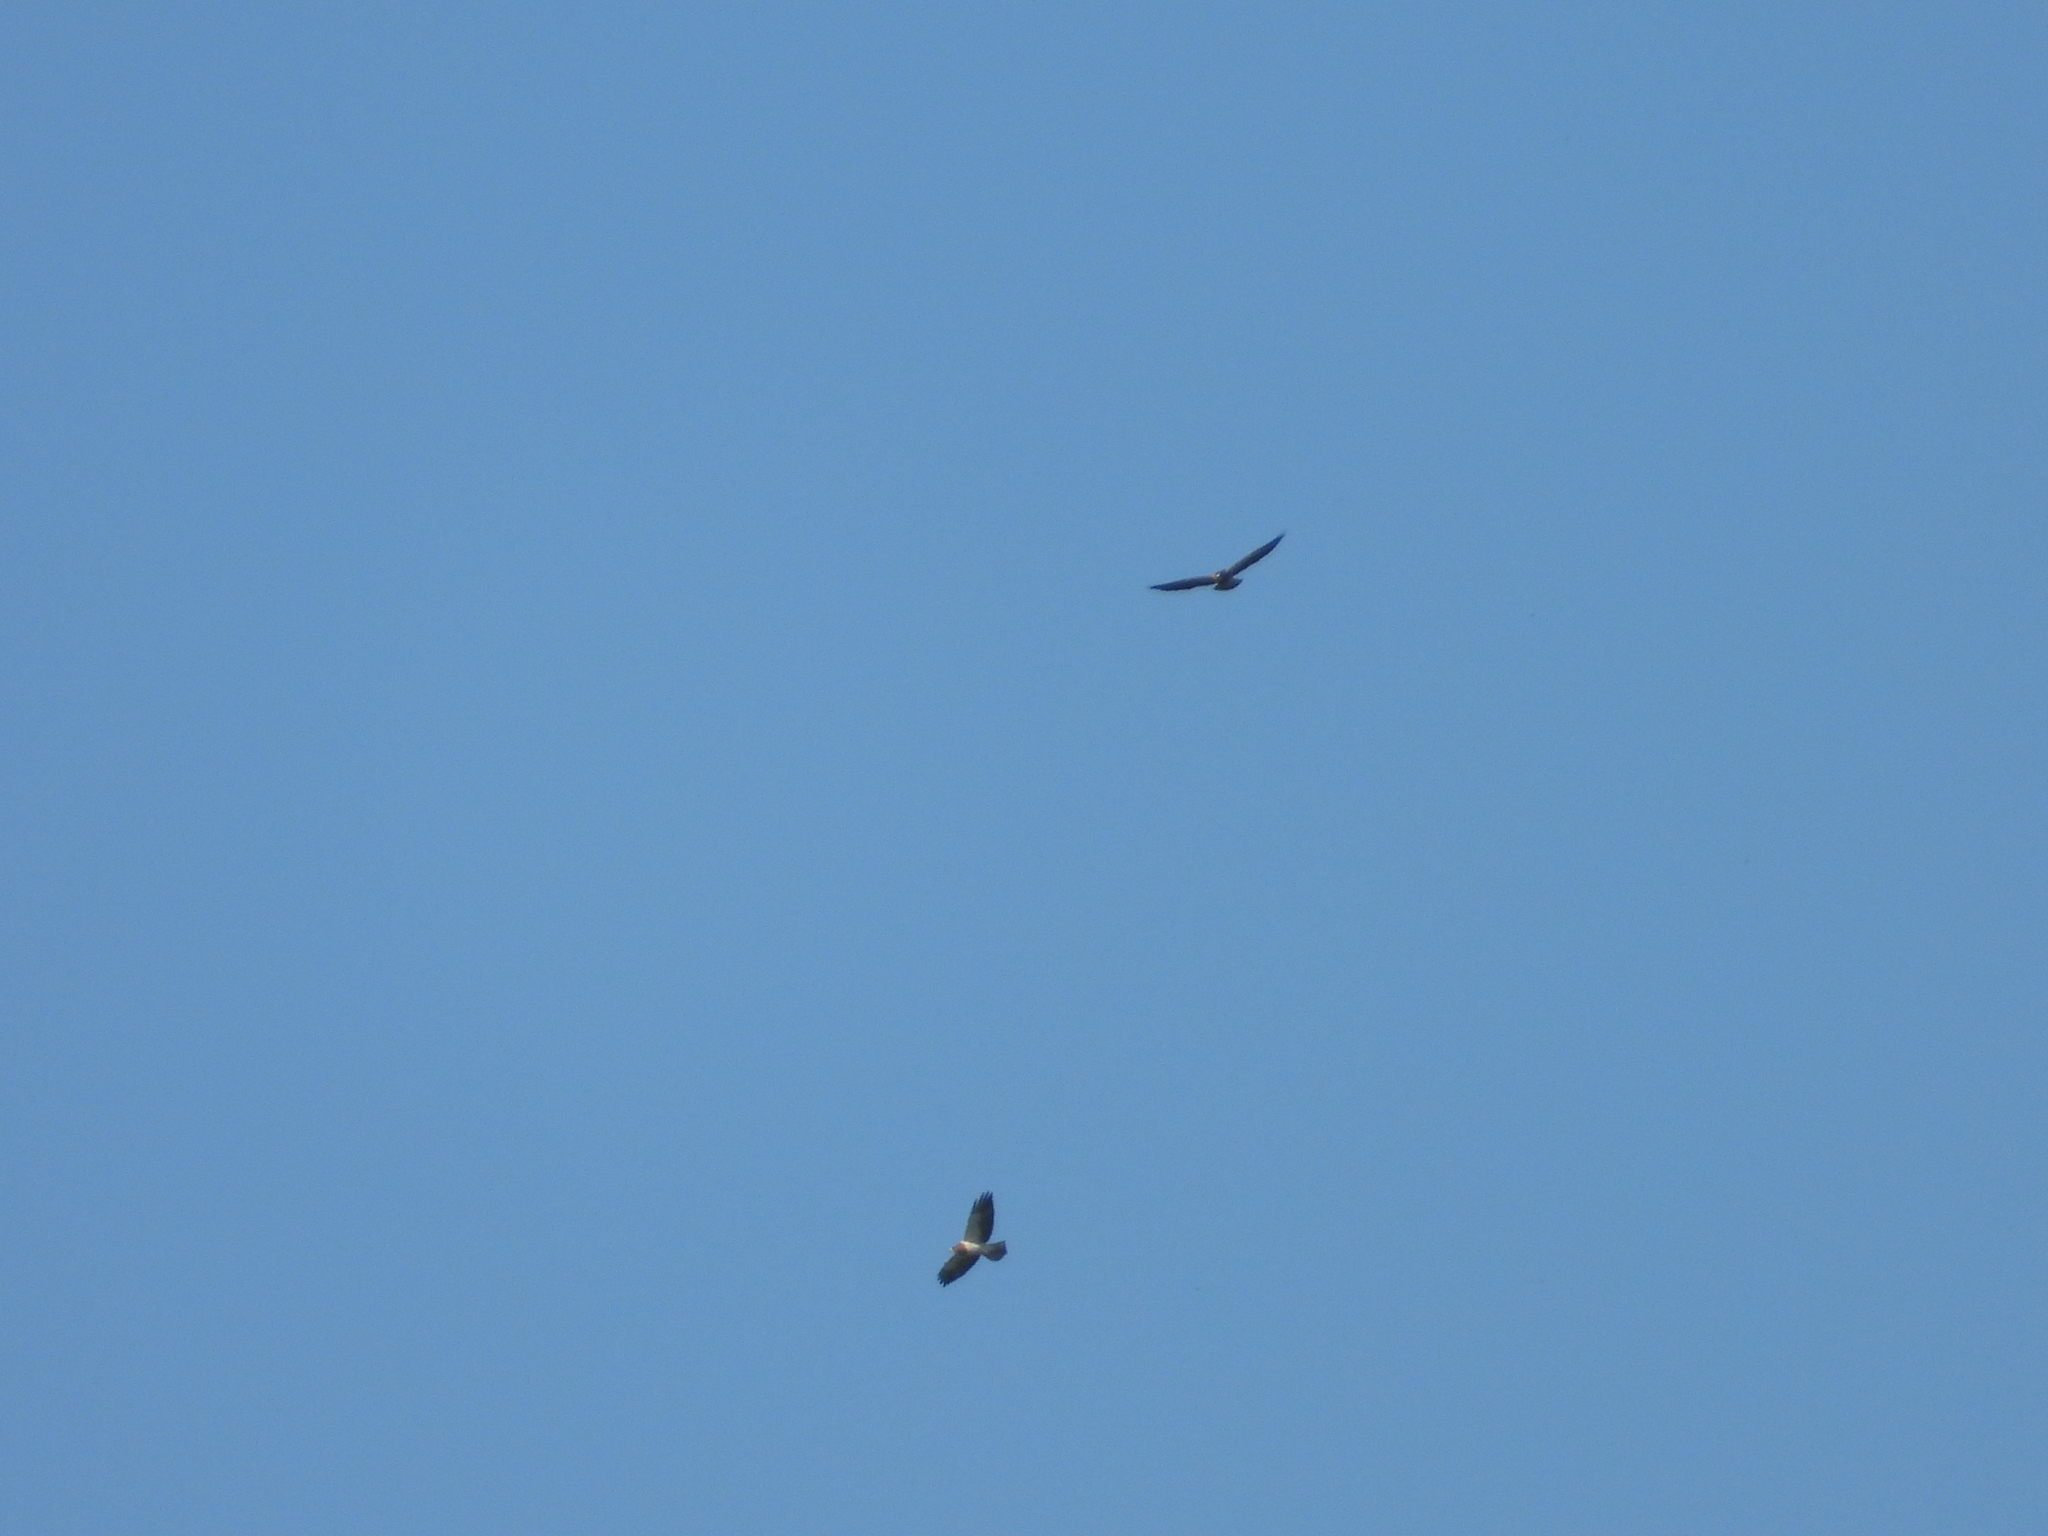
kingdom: Animalia
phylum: Chordata
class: Aves
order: Accipitriformes
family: Accipitridae
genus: Buteo
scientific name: Buteo swainsoni
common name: Swainson's hawk
